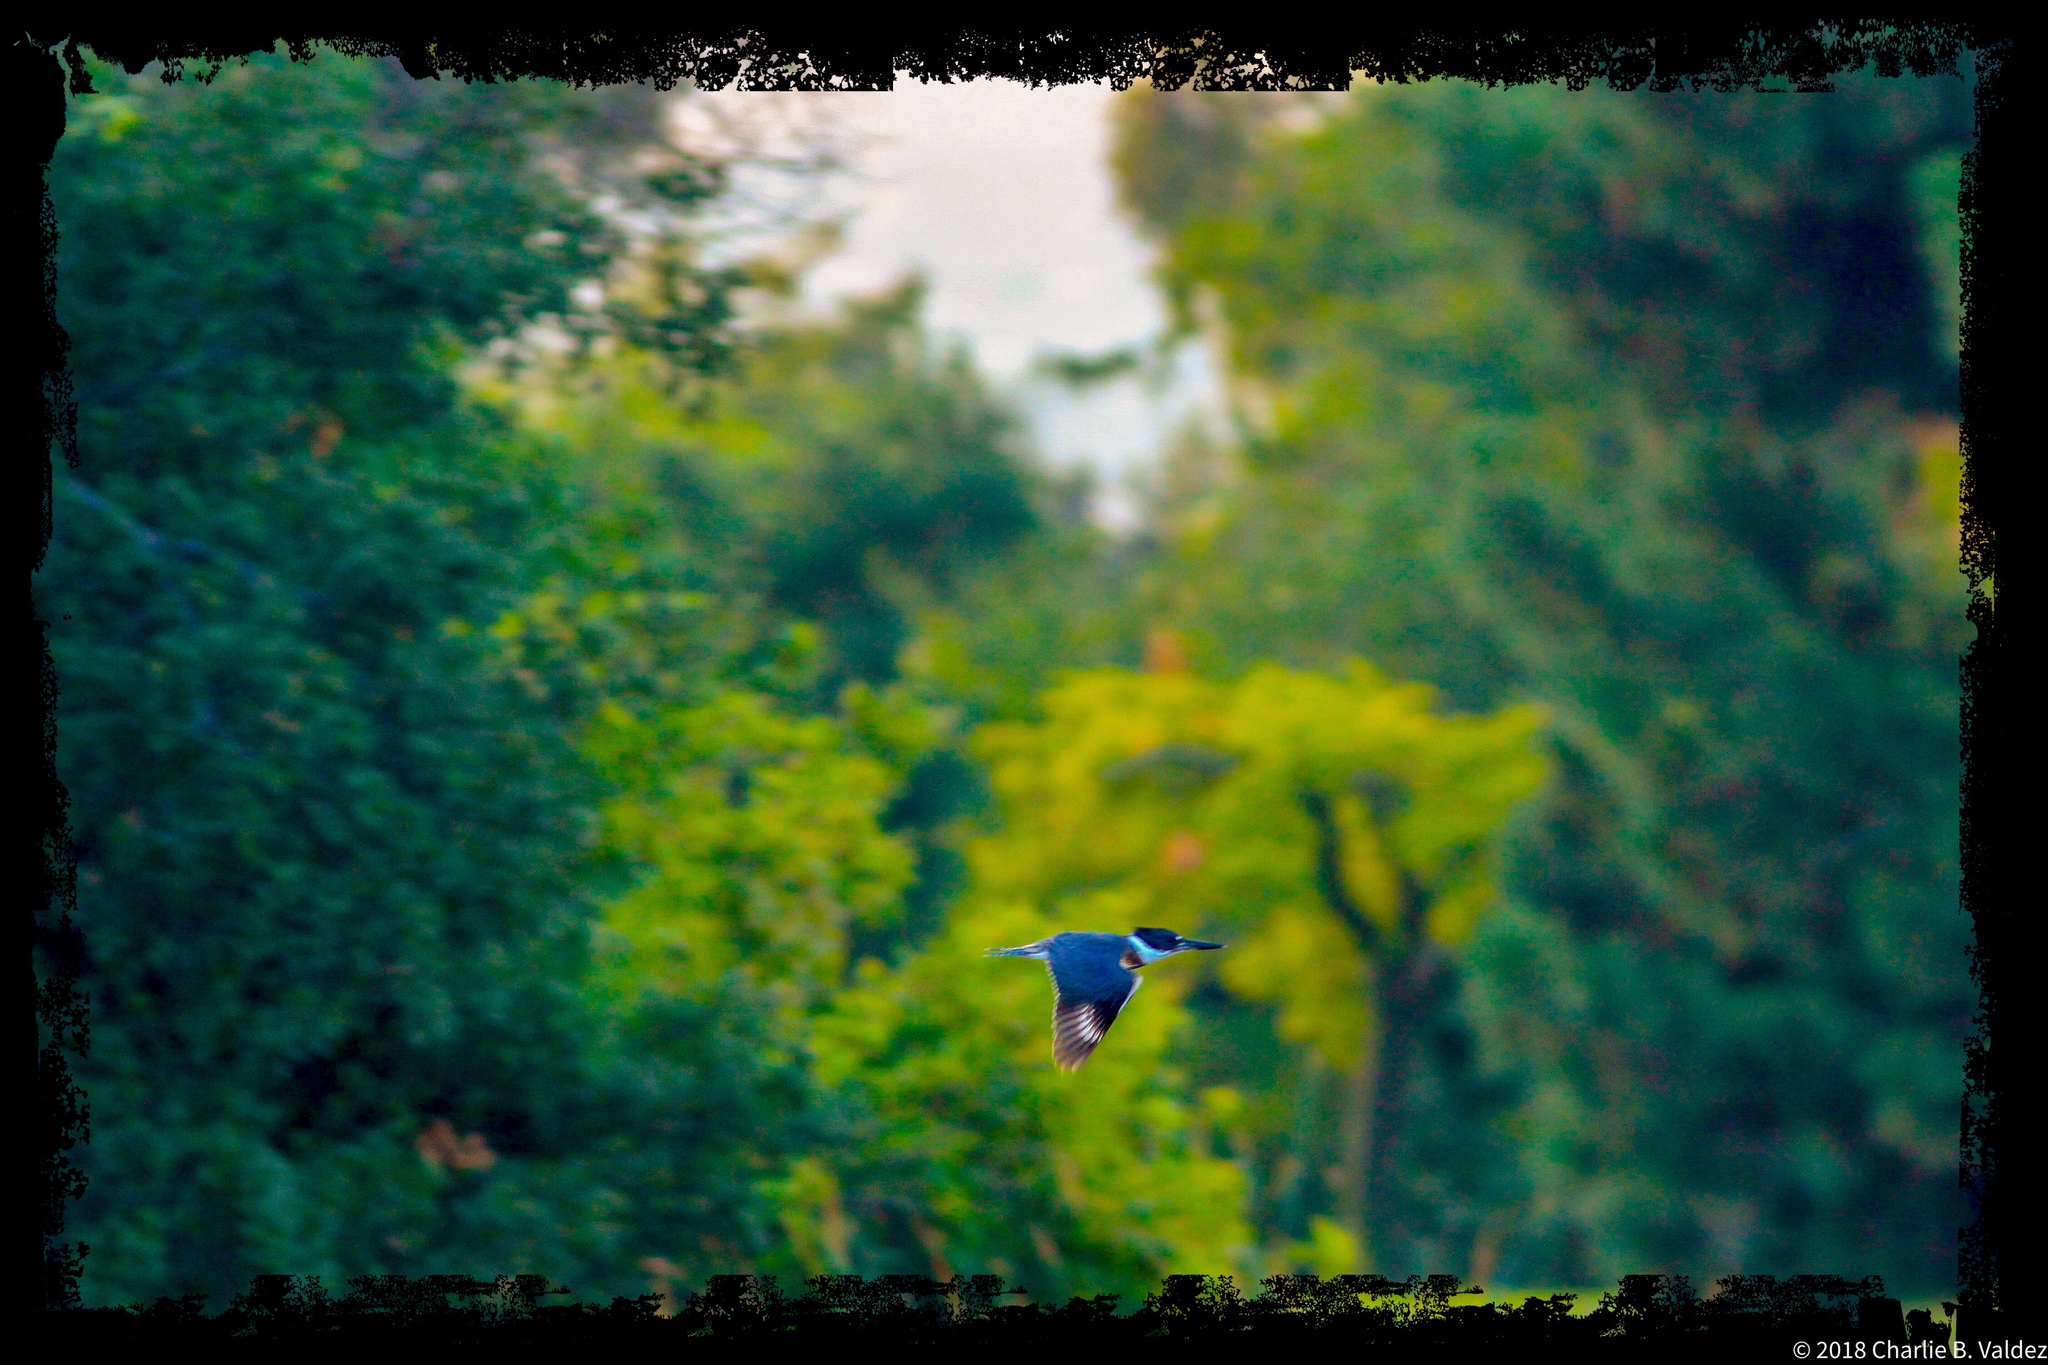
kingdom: Animalia
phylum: Chordata
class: Aves
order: Coraciiformes
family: Alcedinidae
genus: Megaceryle
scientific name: Megaceryle alcyon
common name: Belted kingfisher
